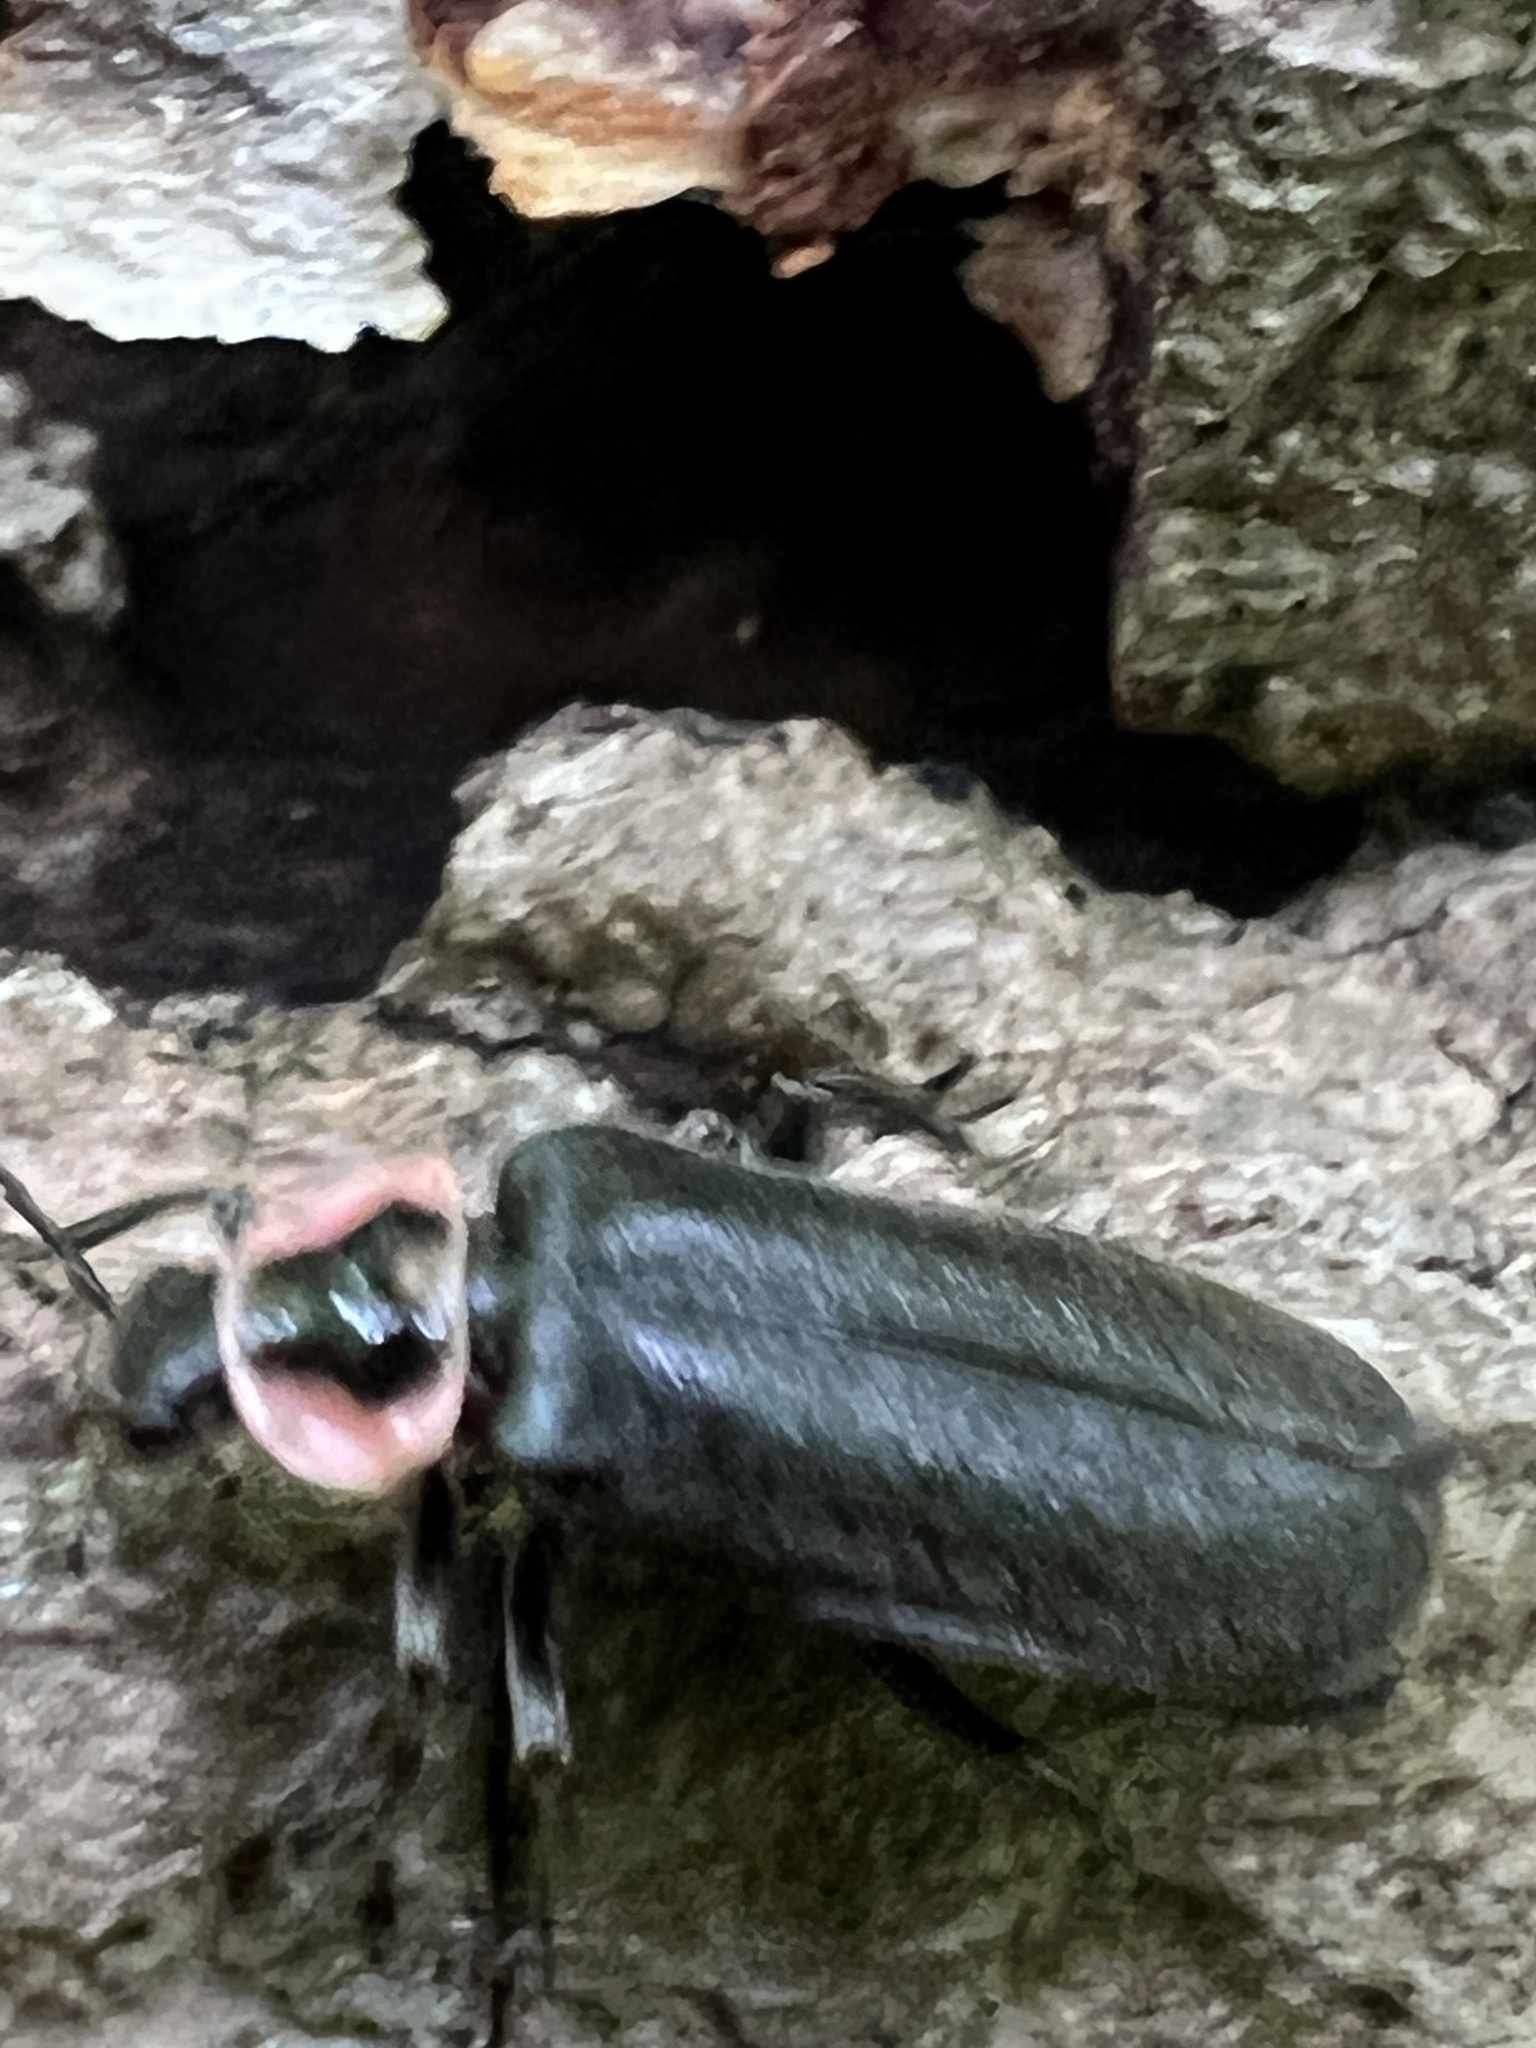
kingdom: Animalia
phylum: Arthropoda
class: Insecta
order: Coleoptera
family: Cantharidae
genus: Atalantycha
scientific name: Atalantycha neglecta
